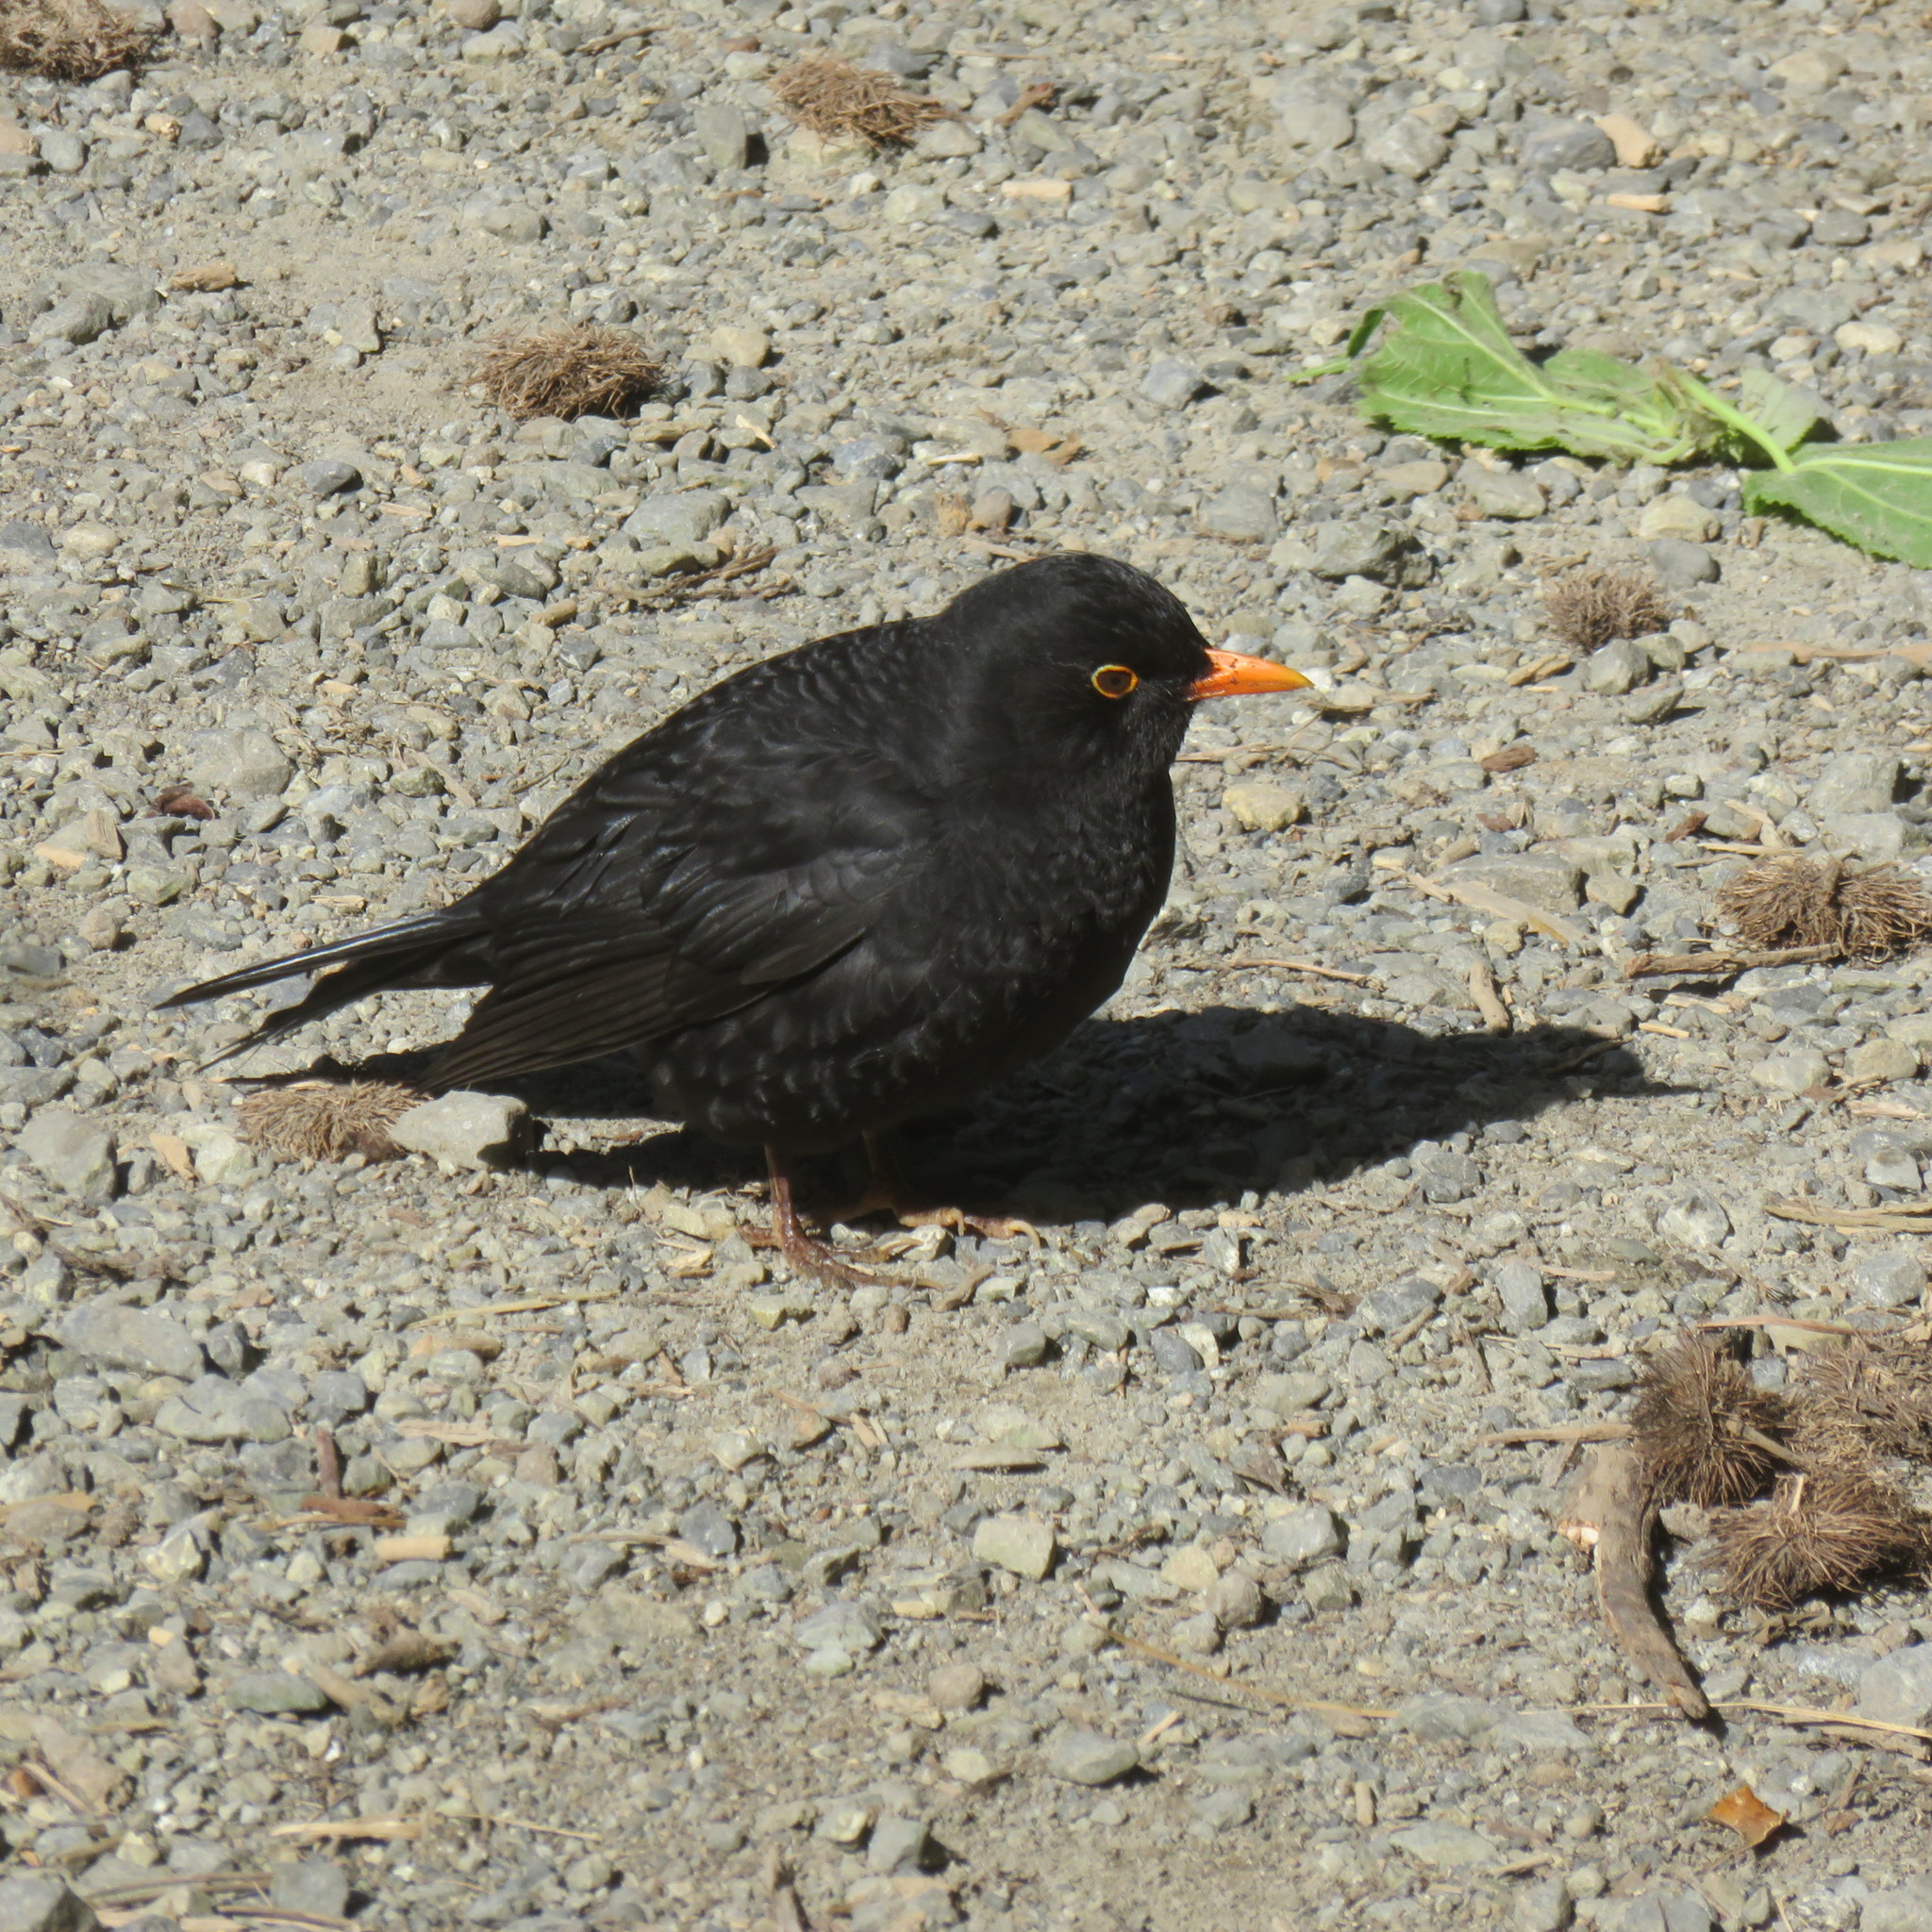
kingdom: Animalia
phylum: Chordata
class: Aves
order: Passeriformes
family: Turdidae
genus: Turdus
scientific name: Turdus merula
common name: Common blackbird
